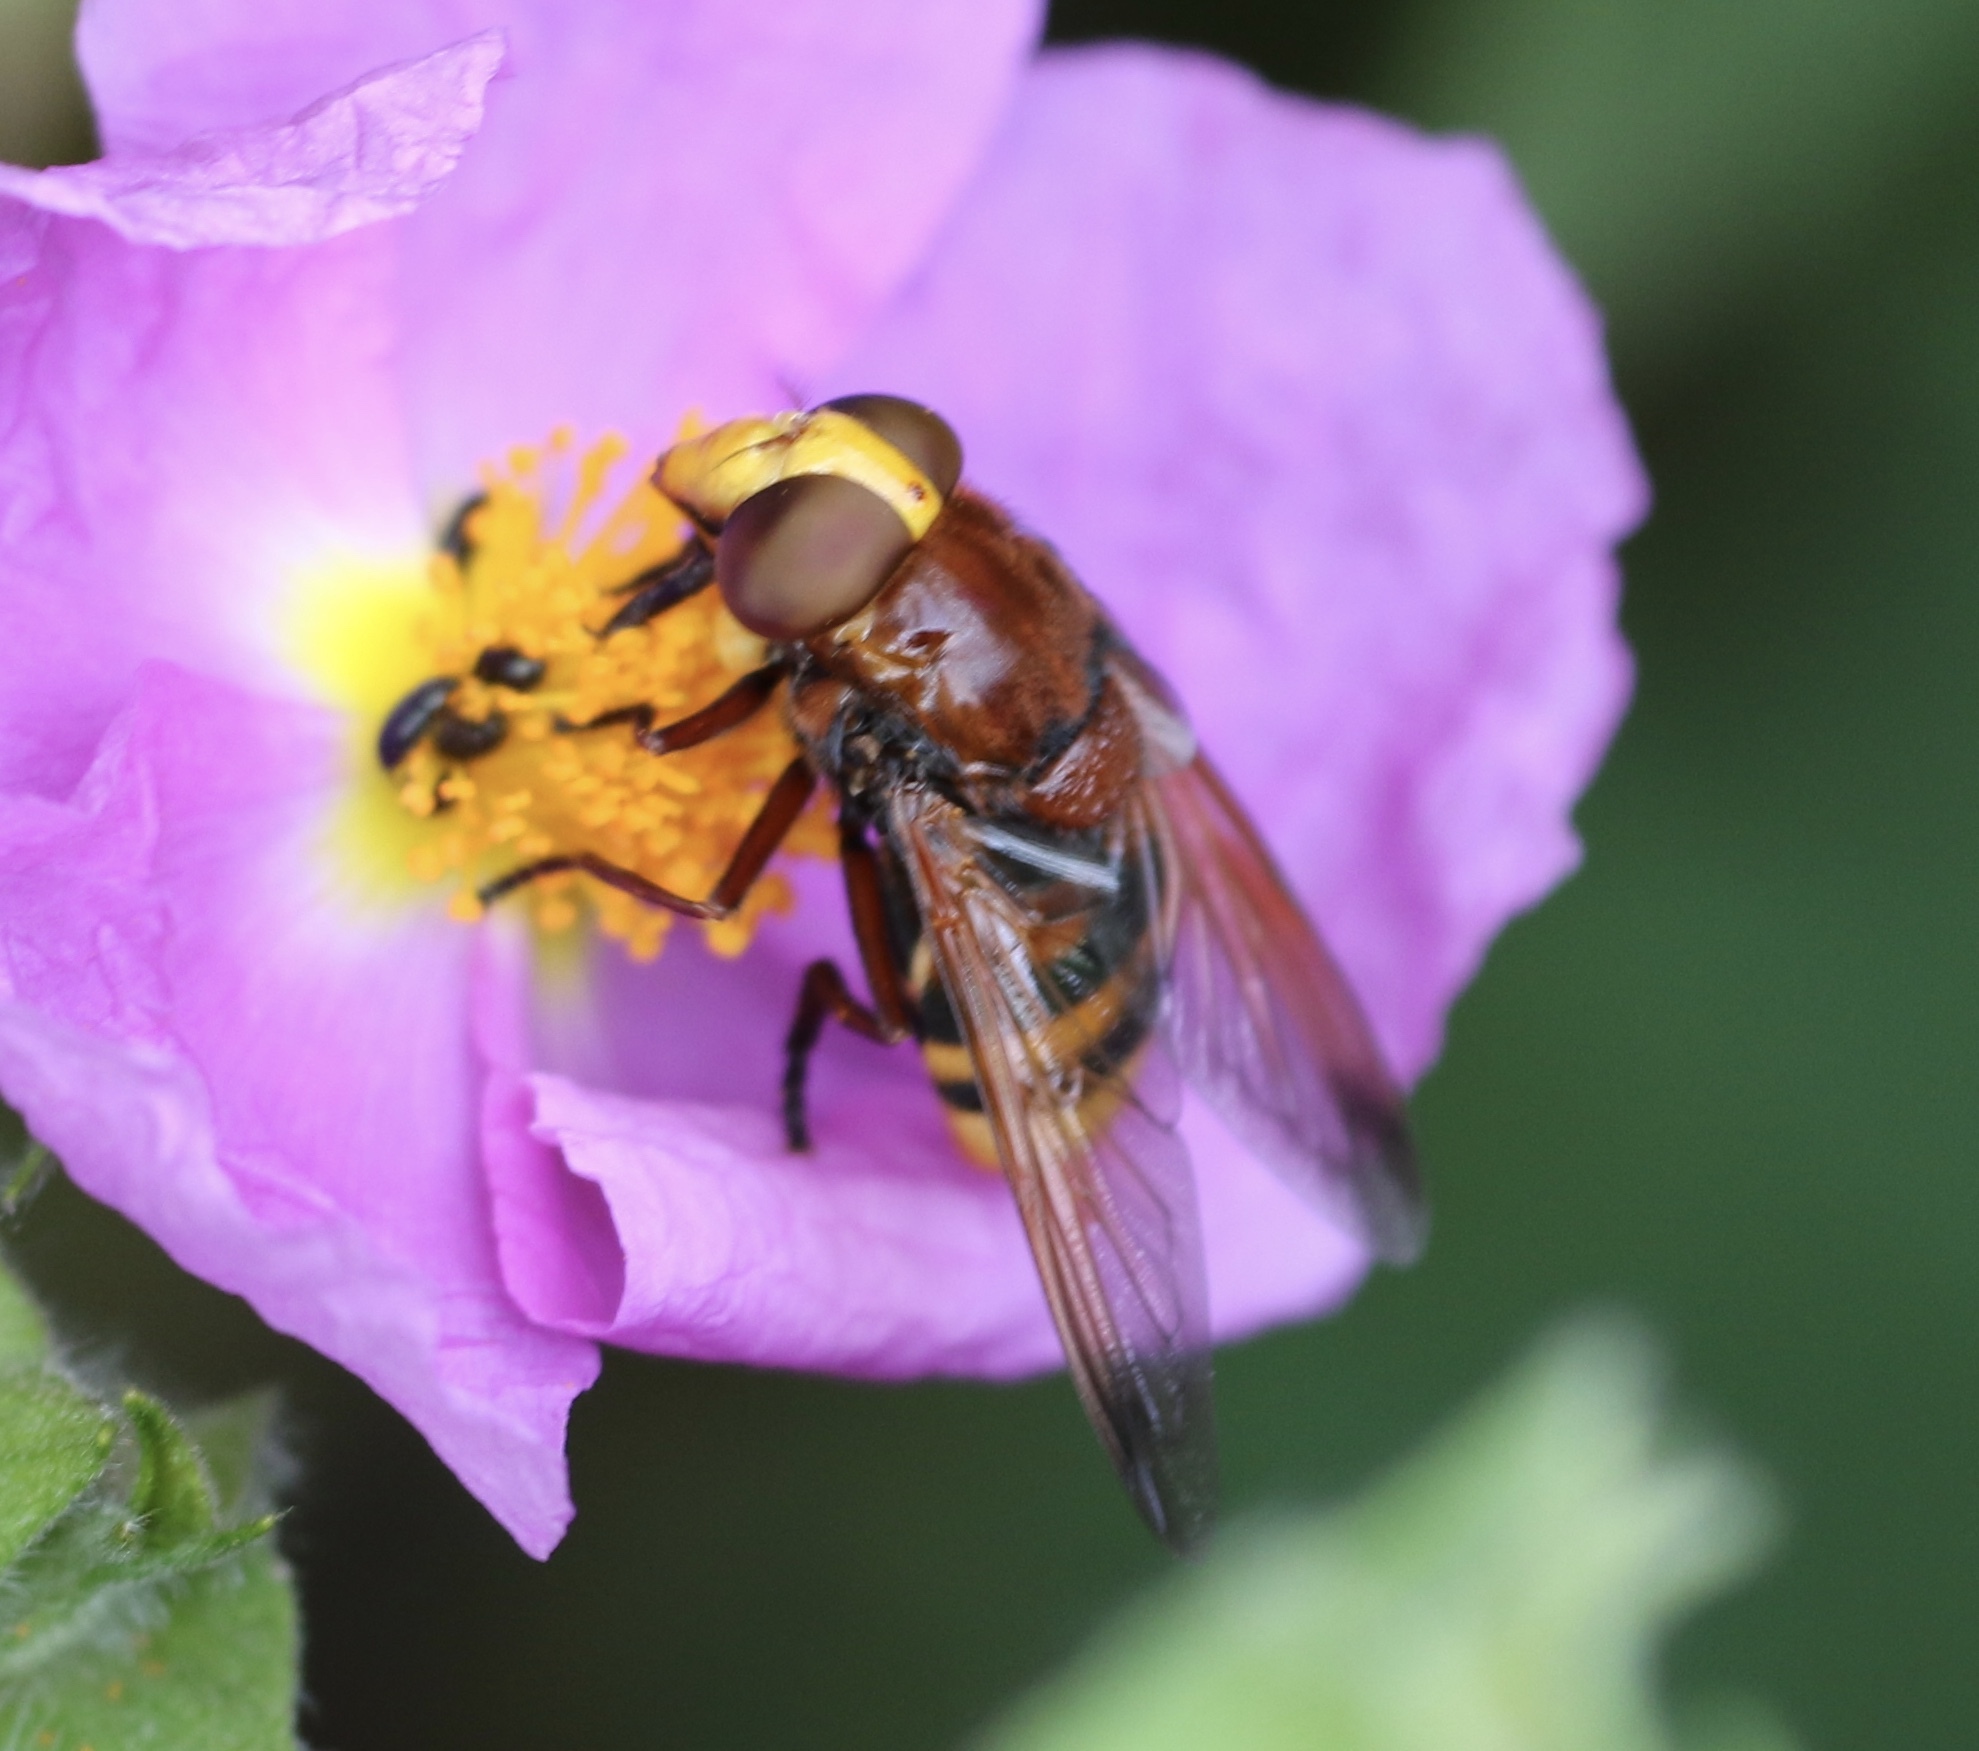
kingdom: Animalia
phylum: Arthropoda
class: Insecta
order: Diptera
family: Syrphidae
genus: Volucella
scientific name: Volucella zonaria
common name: Hornet hoverfly
